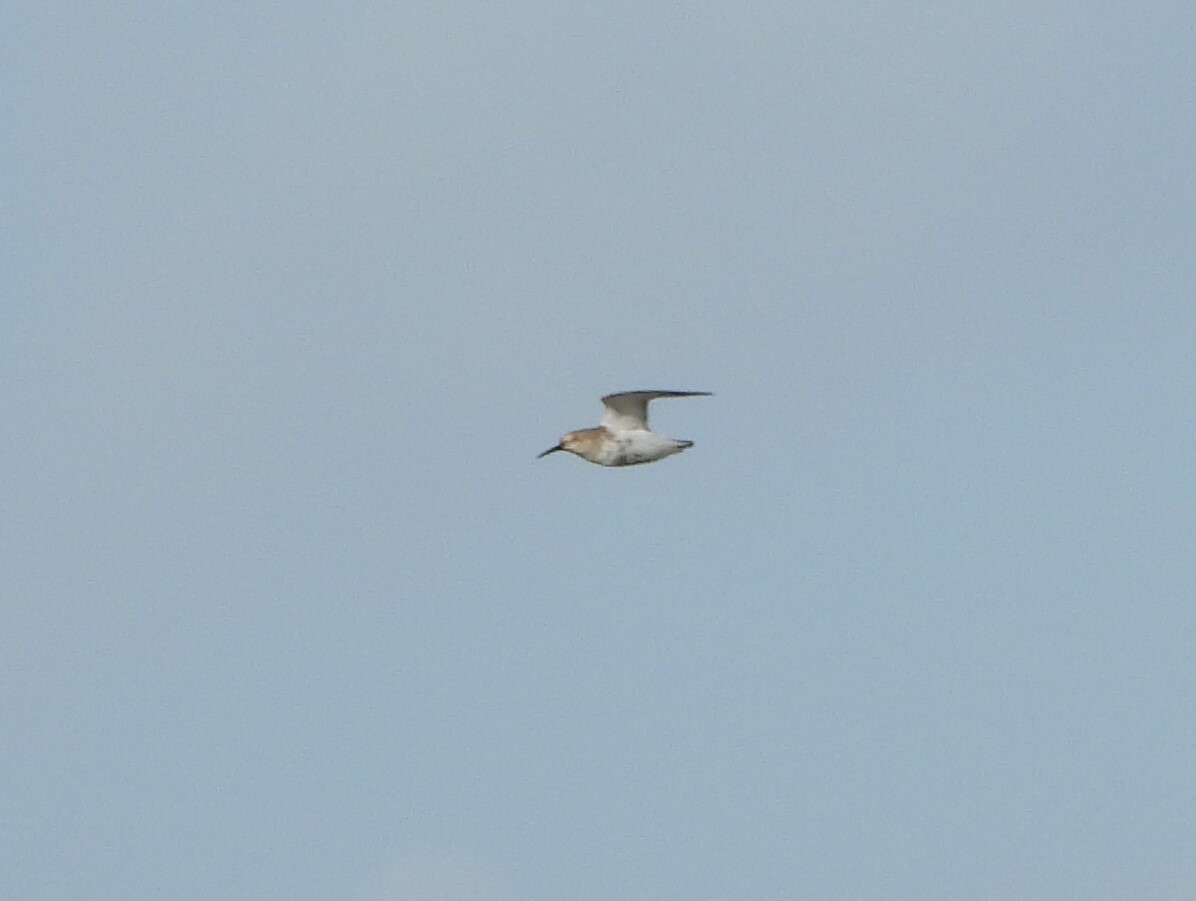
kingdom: Animalia
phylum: Chordata
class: Aves
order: Charadriiformes
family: Scolopacidae
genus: Calidris
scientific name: Calidris alpina
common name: Dunlin
